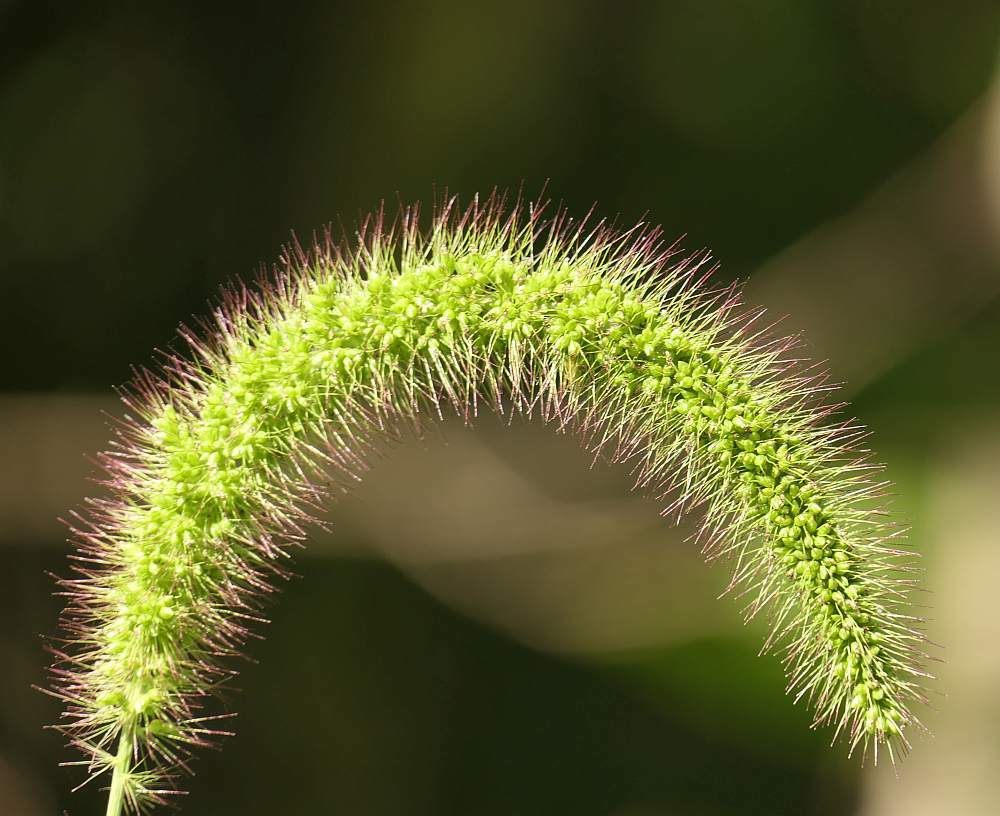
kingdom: Plantae
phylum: Tracheophyta
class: Liliopsida
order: Poales
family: Poaceae
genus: Setaria
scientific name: Setaria faberi
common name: Nodding bristle-grass
